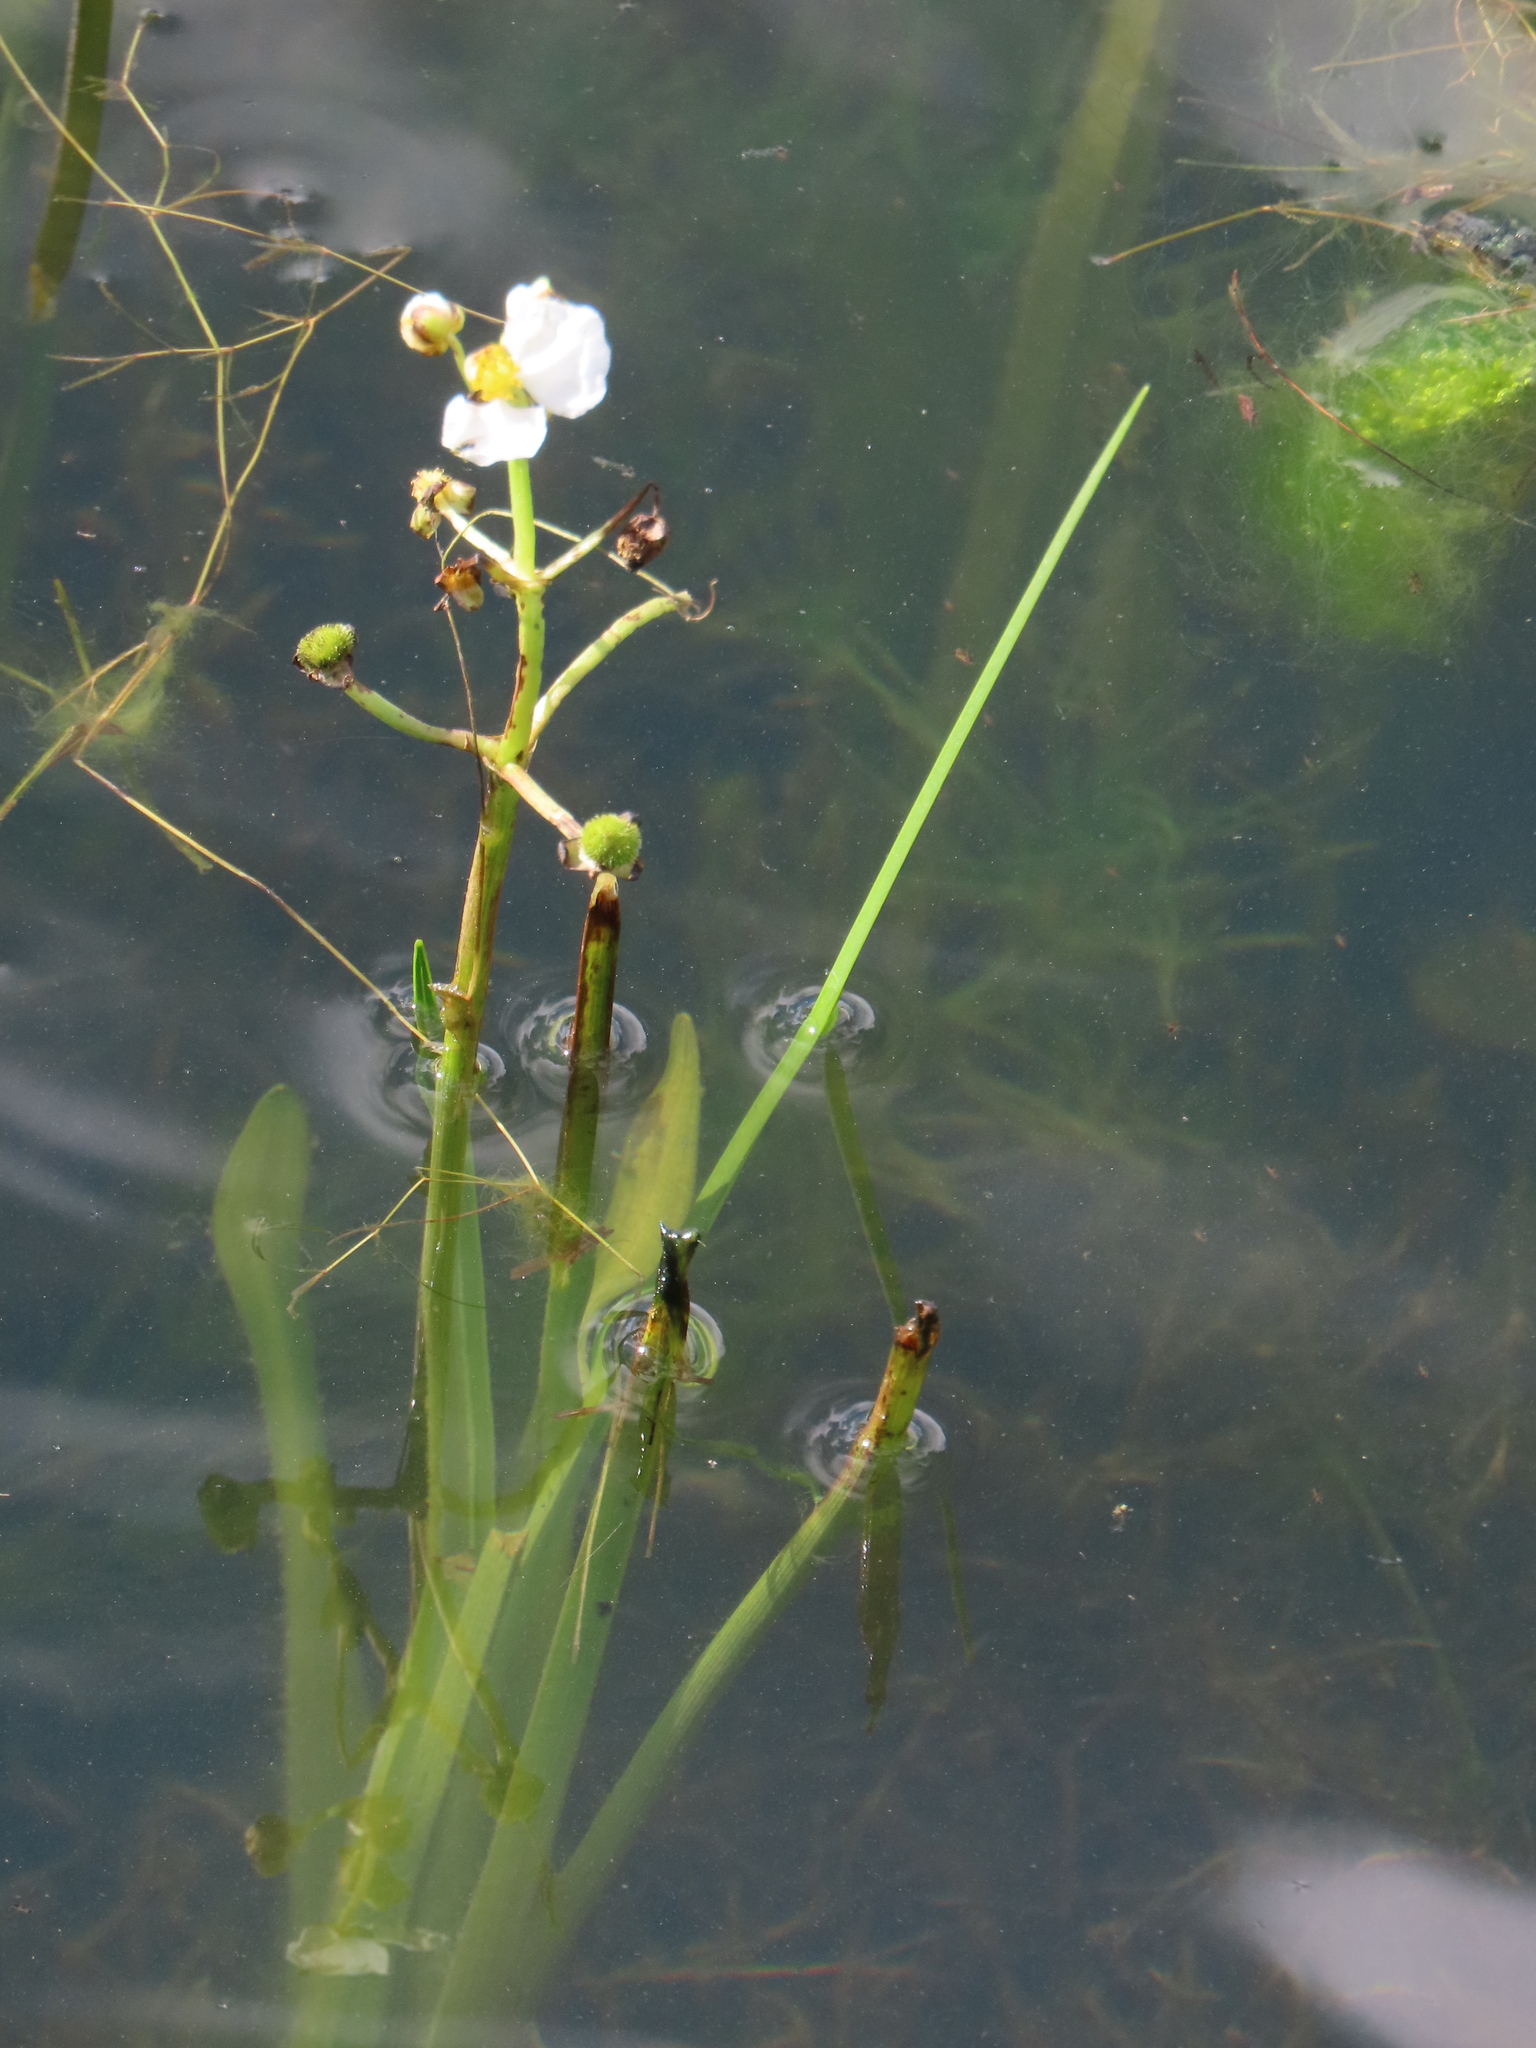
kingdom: Plantae
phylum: Tracheophyta
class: Liliopsida
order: Alismatales
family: Alismataceae
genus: Sagittaria
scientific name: Sagittaria platyphylla
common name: Broad-leaf arrowhead
